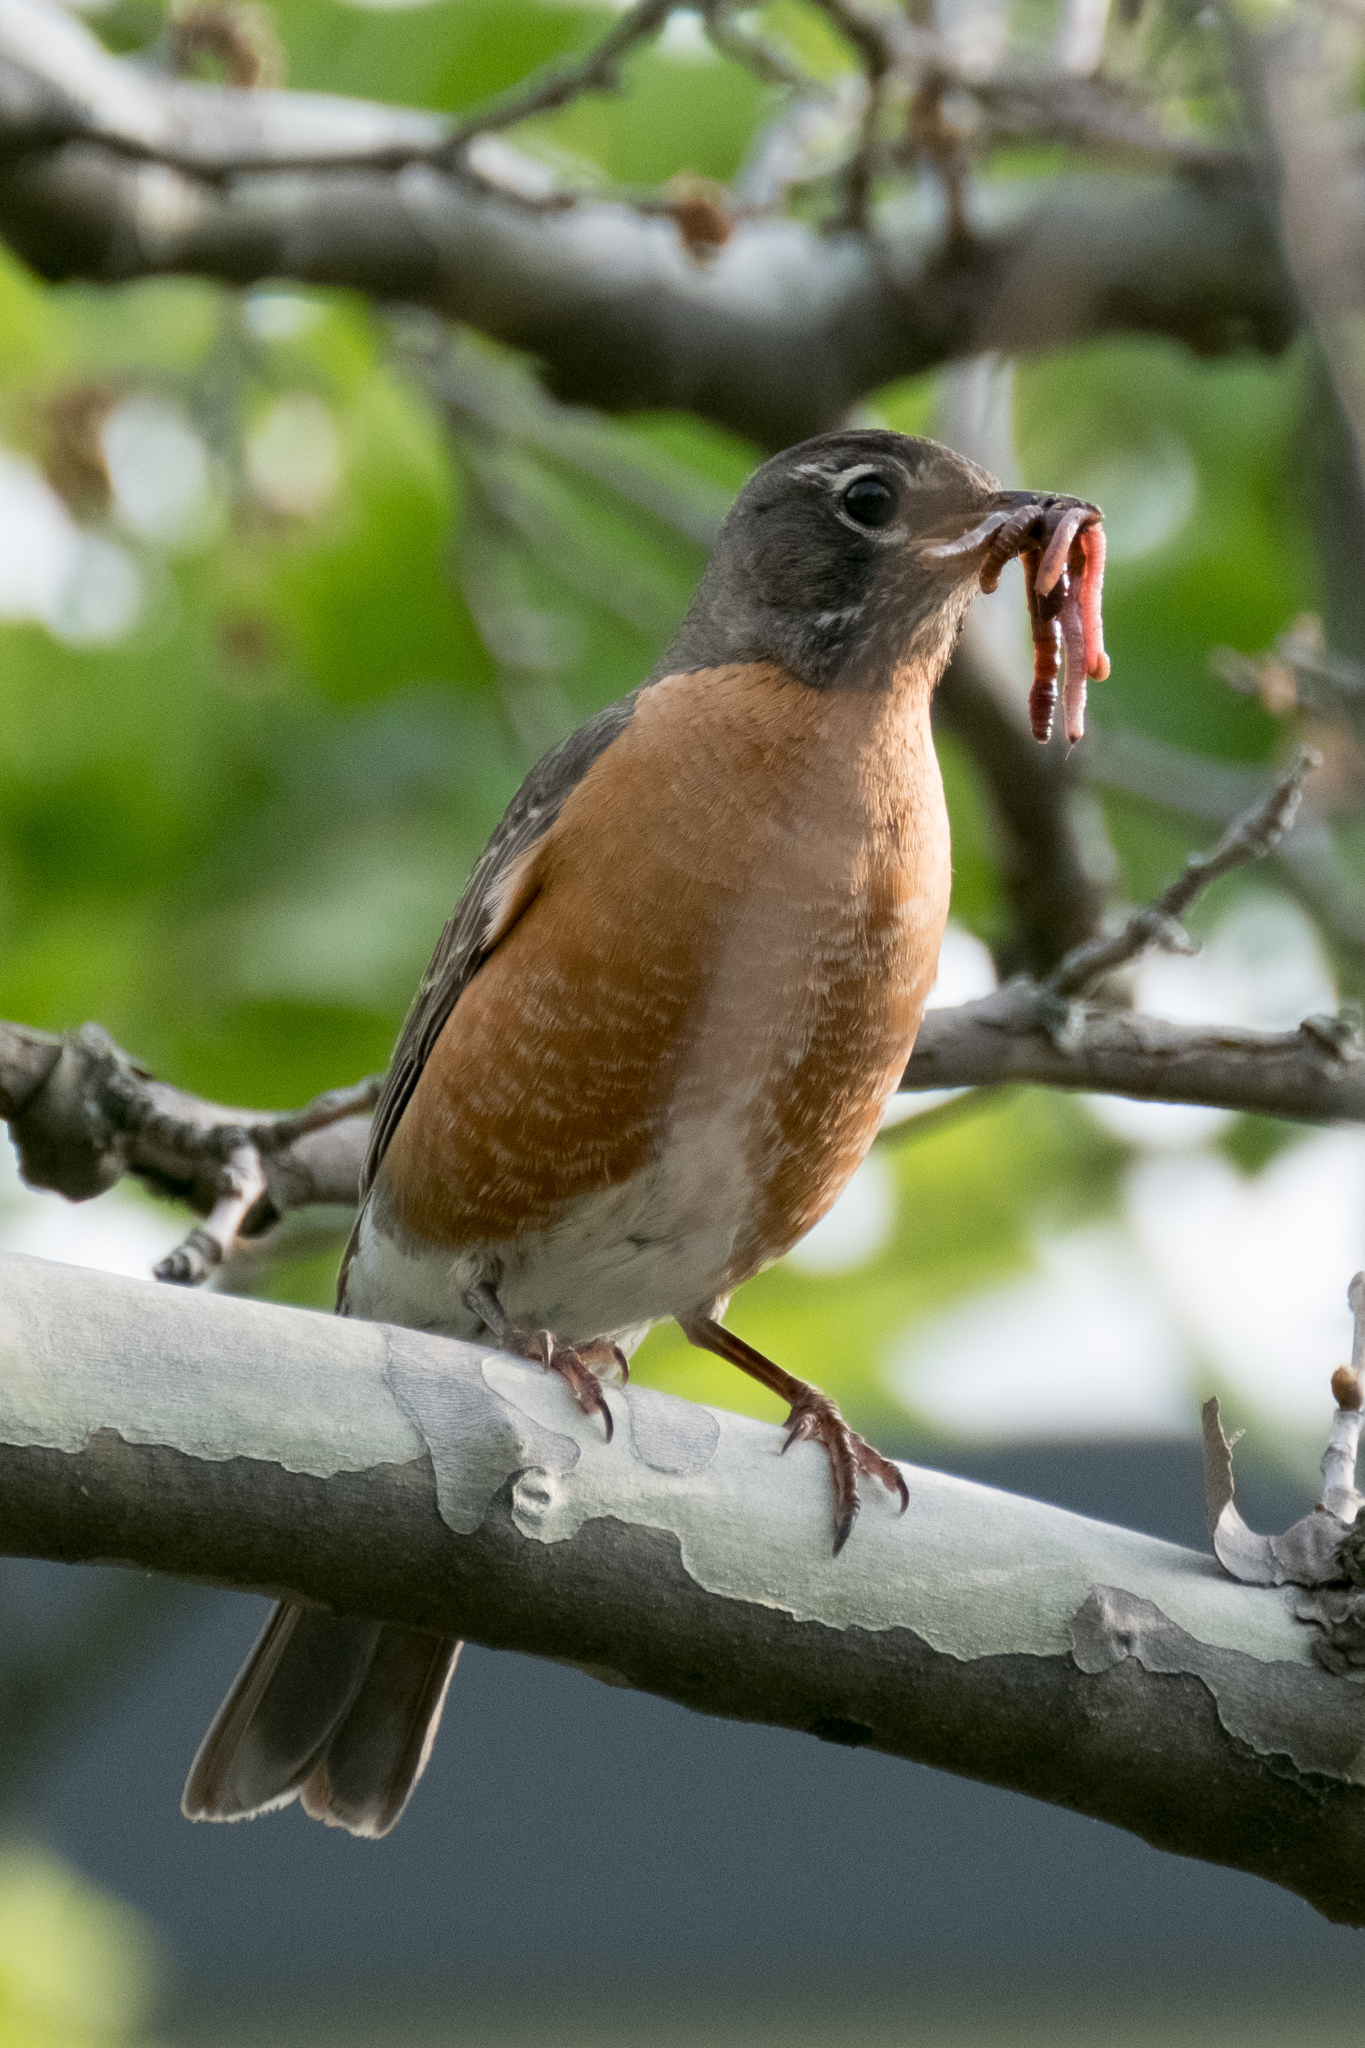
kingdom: Animalia
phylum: Chordata
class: Aves
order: Passeriformes
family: Turdidae
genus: Turdus
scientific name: Turdus migratorius
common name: American robin
